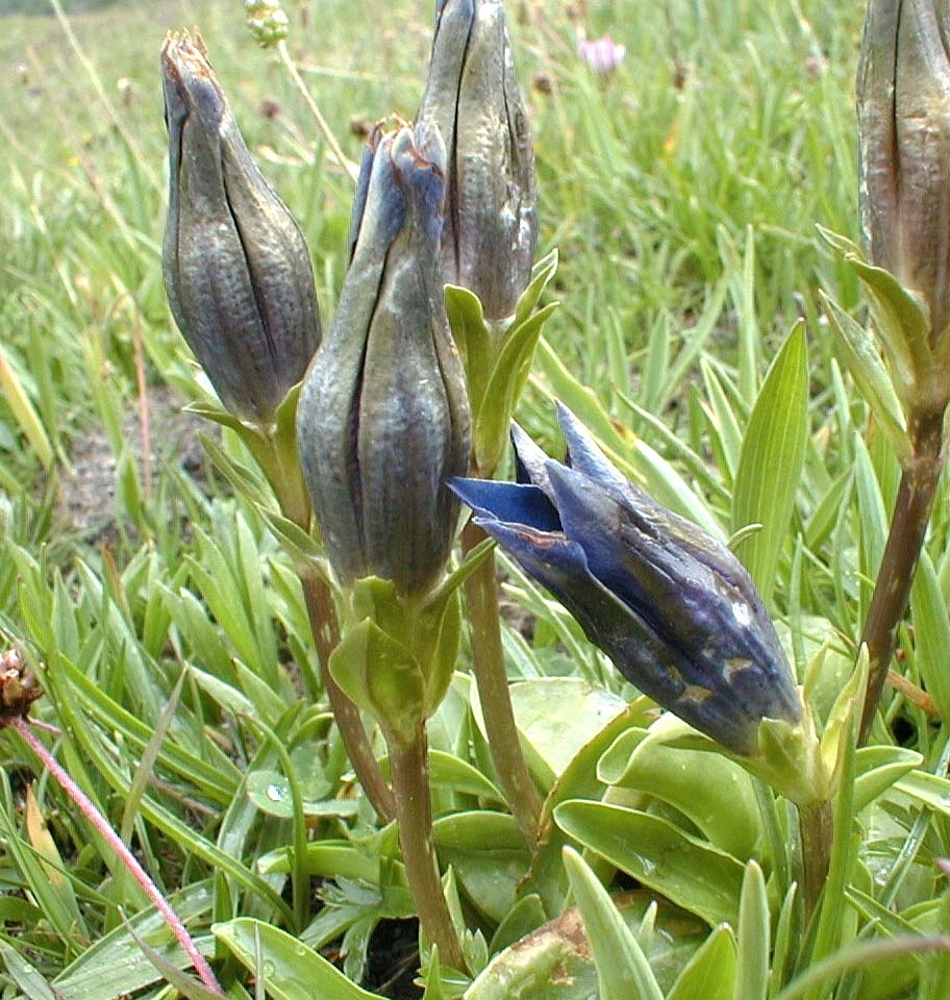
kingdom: Plantae
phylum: Tracheophyta
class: Magnoliopsida
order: Gentianales
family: Gentianaceae
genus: Gentiana
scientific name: Gentiana acaulis
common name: Trumpet gentian
